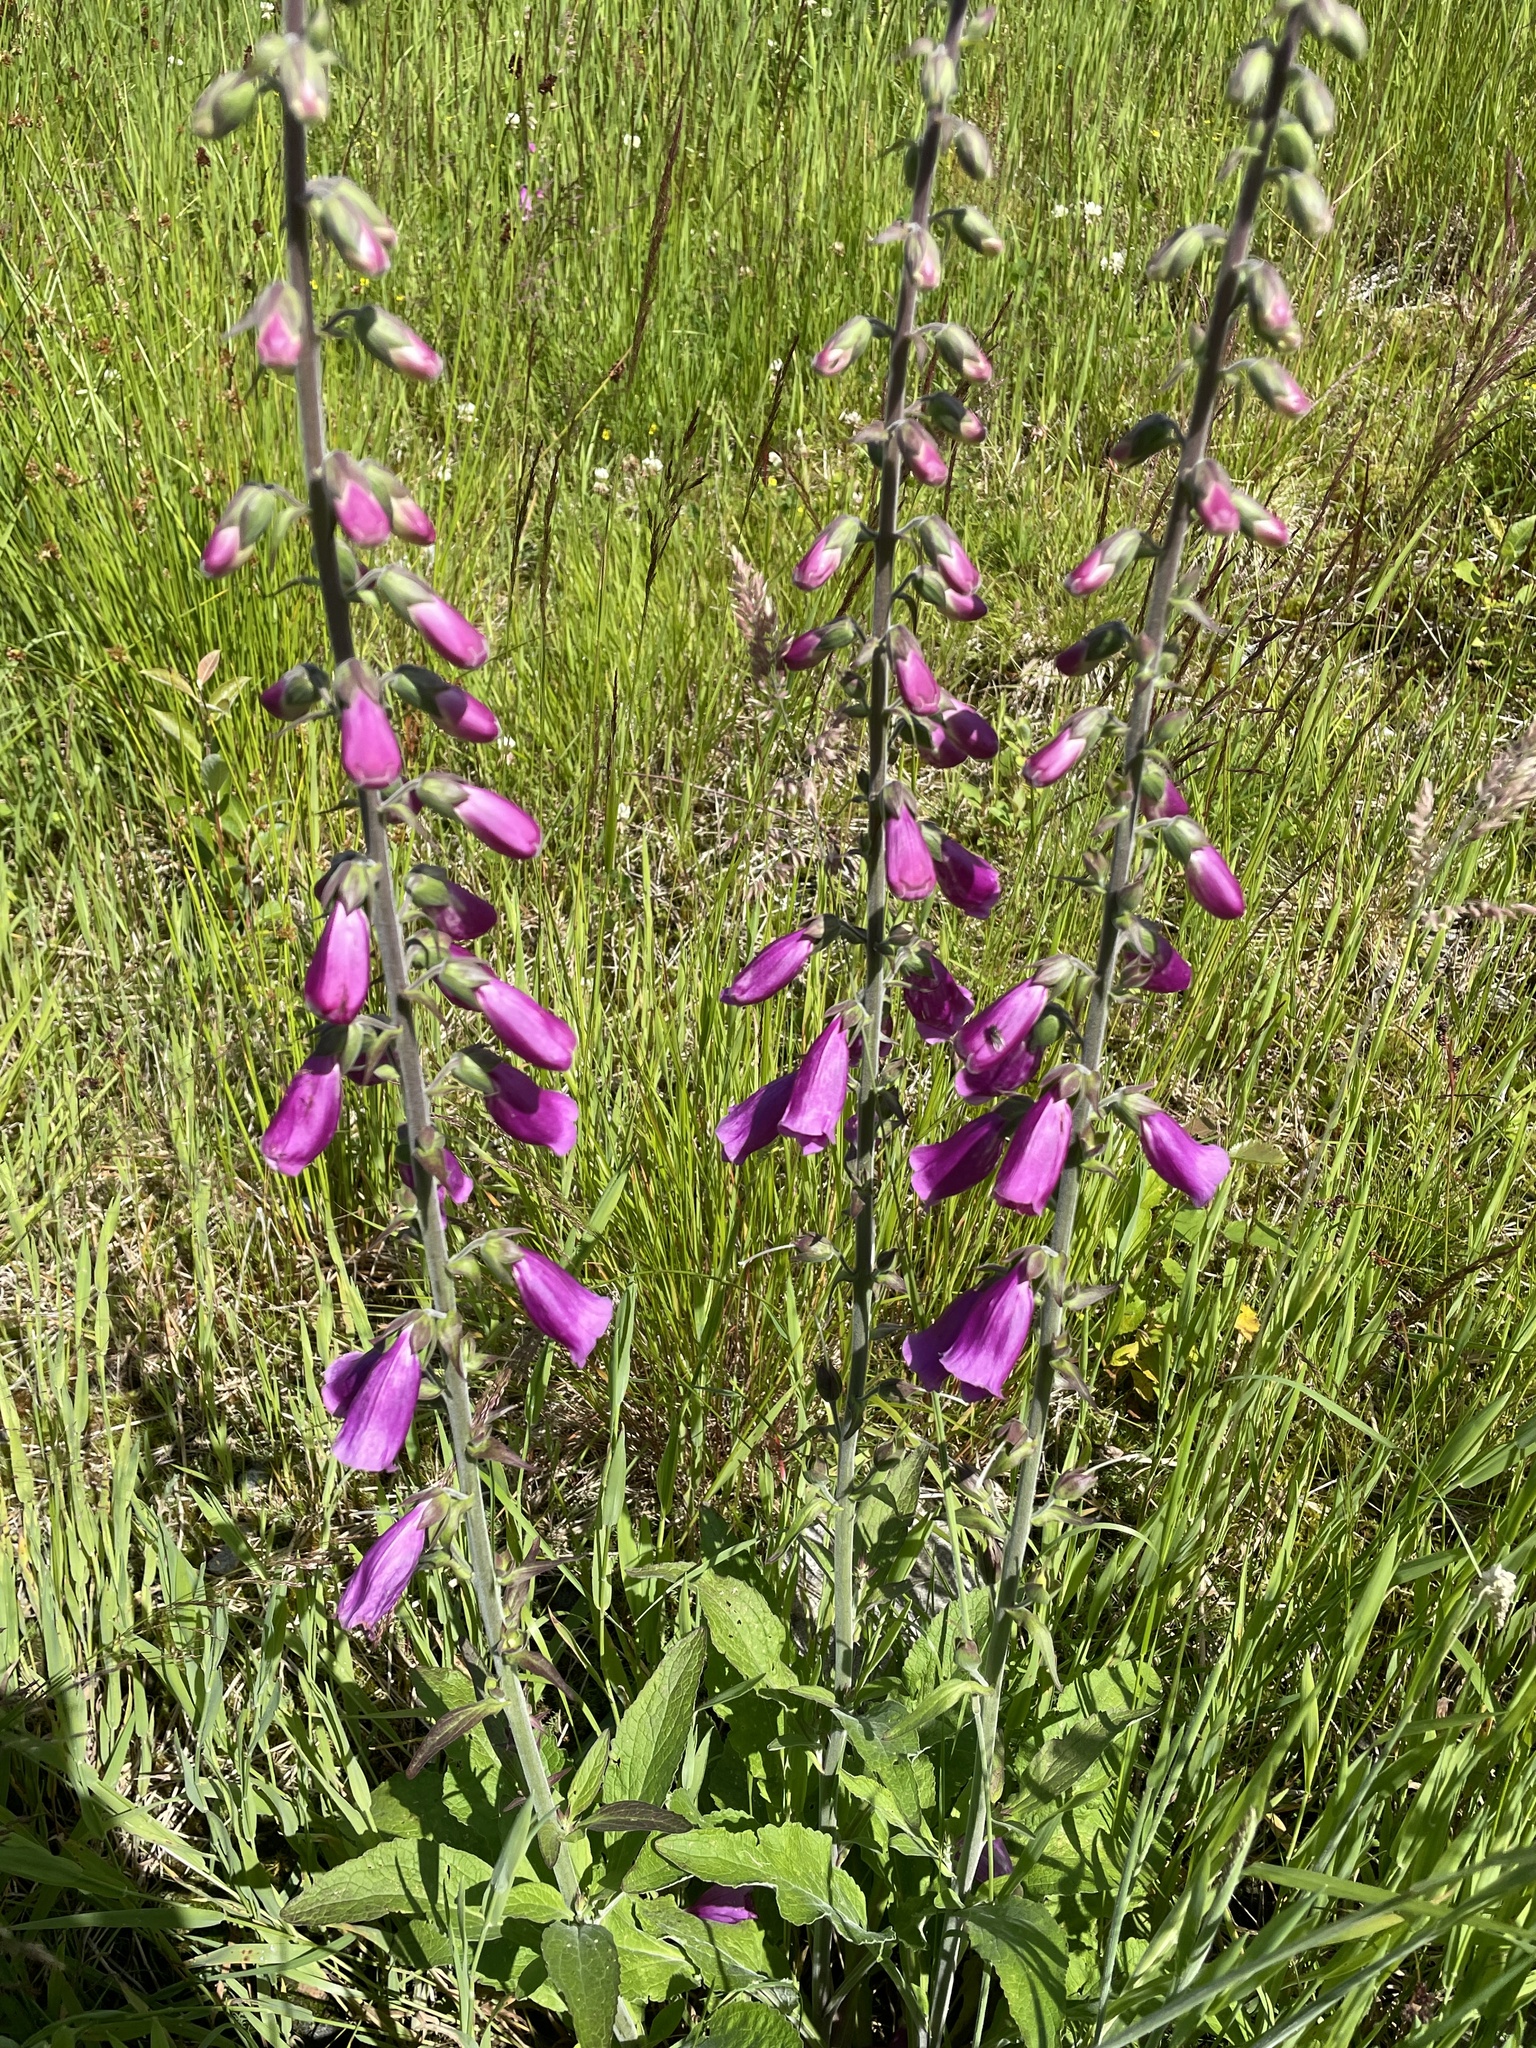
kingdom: Plantae
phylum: Tracheophyta
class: Magnoliopsida
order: Lamiales
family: Plantaginaceae
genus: Digitalis
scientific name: Digitalis purpurea
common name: Foxglove
